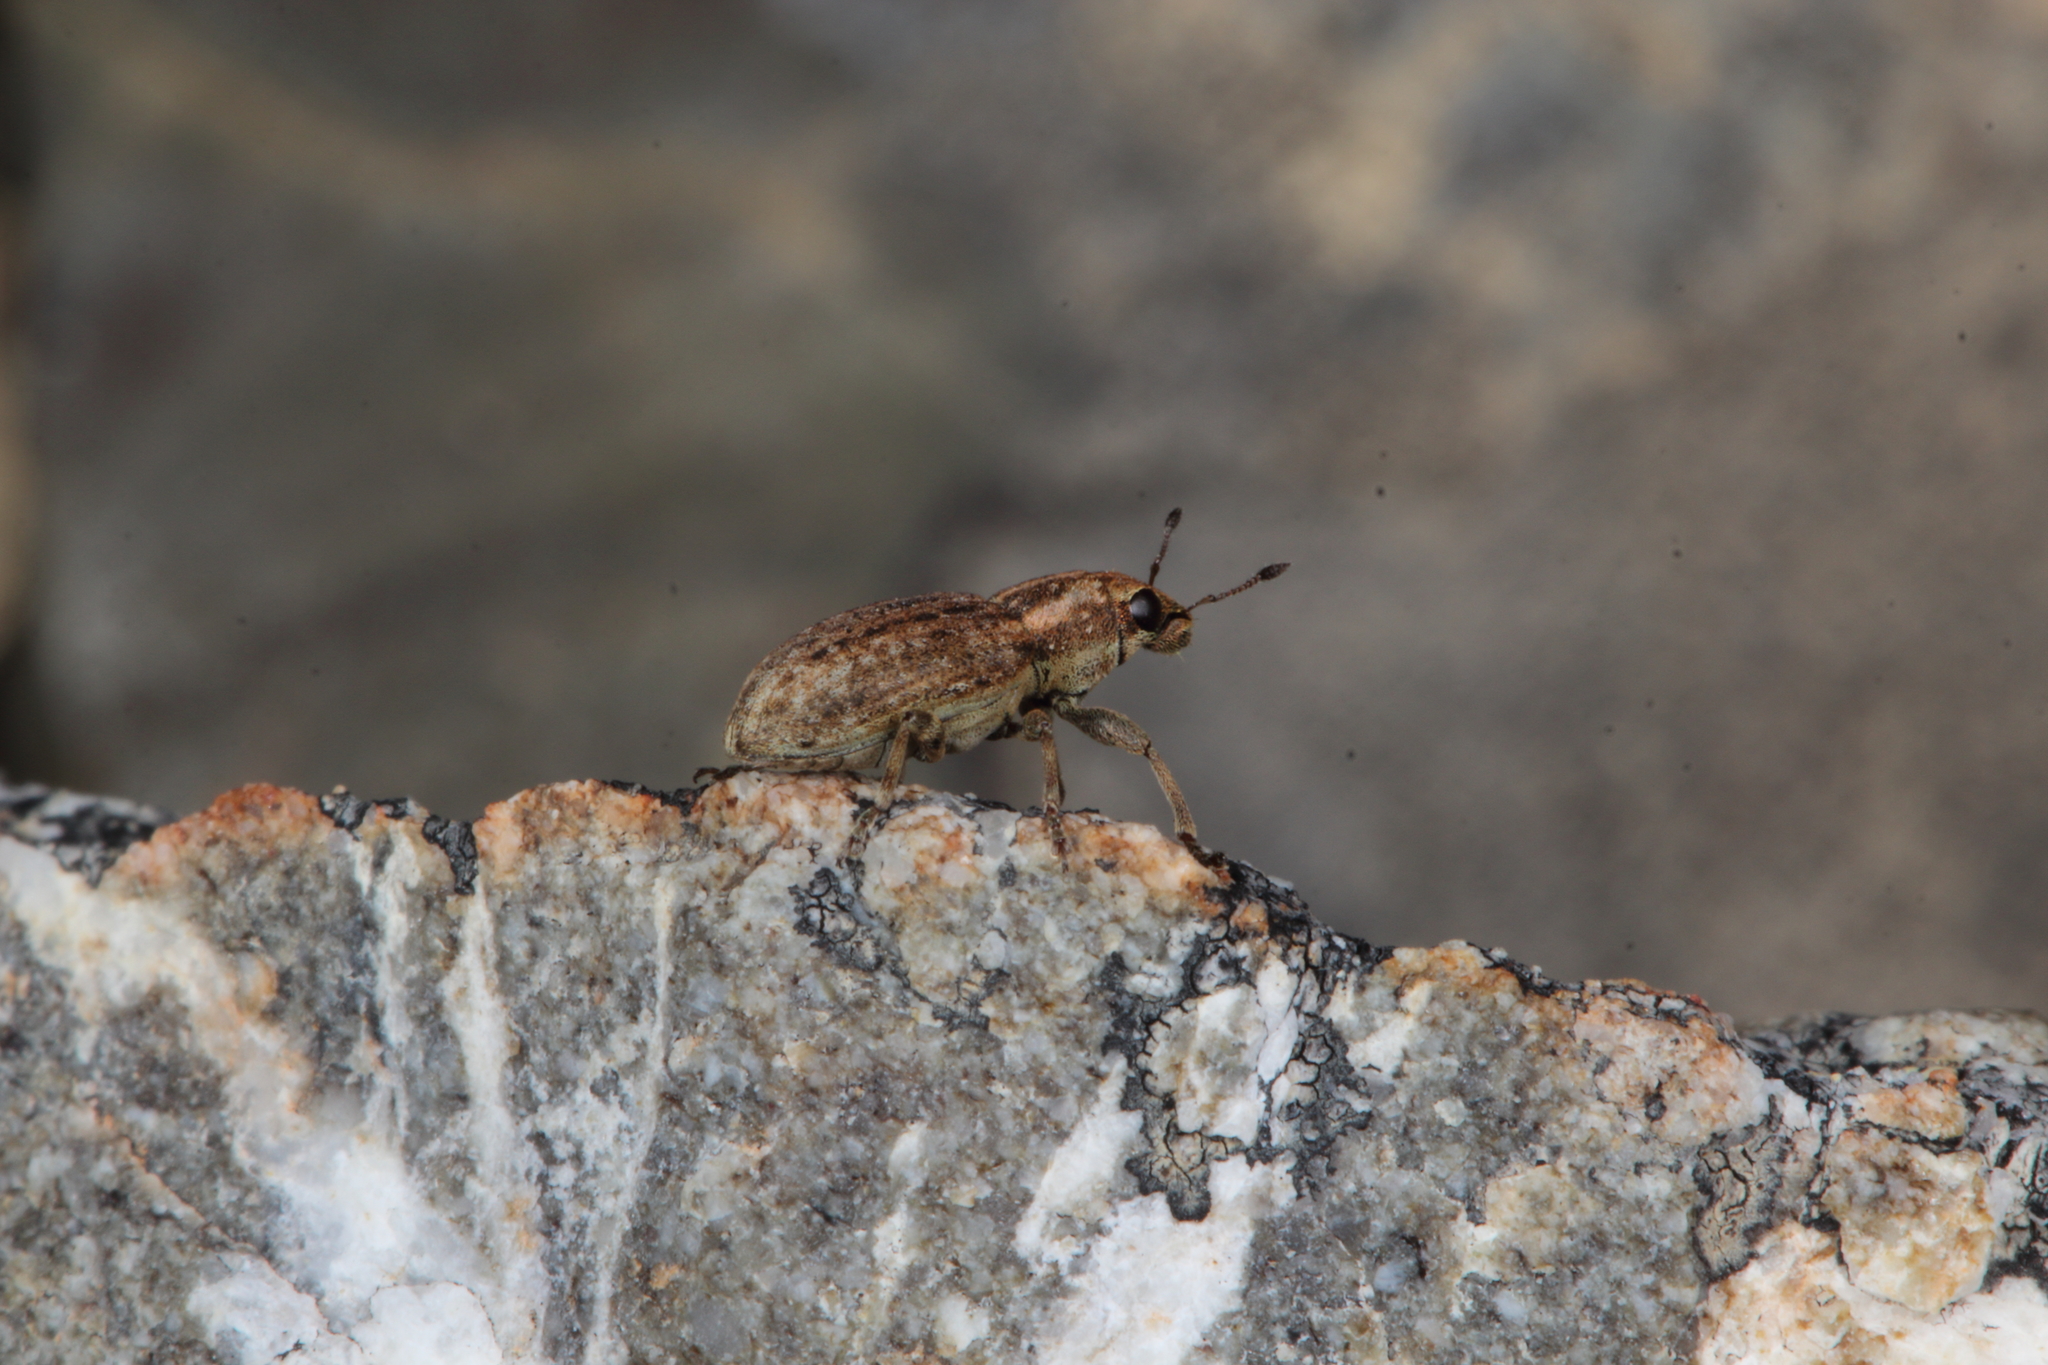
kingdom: Animalia
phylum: Arthropoda
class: Insecta
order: Coleoptera
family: Curculionidae
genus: Sitona
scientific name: Sitona obsoletus
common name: Weevil
